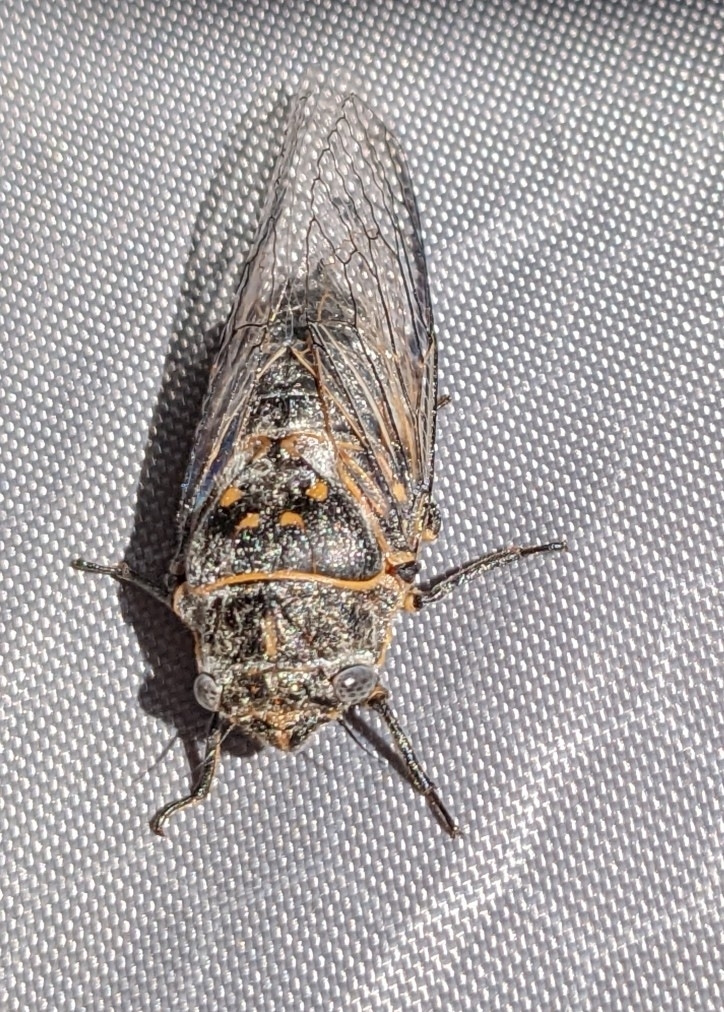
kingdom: Animalia
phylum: Arthropoda
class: Insecta
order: Hemiptera
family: Cicadidae
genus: Tibicinoides
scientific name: Tibicinoides
